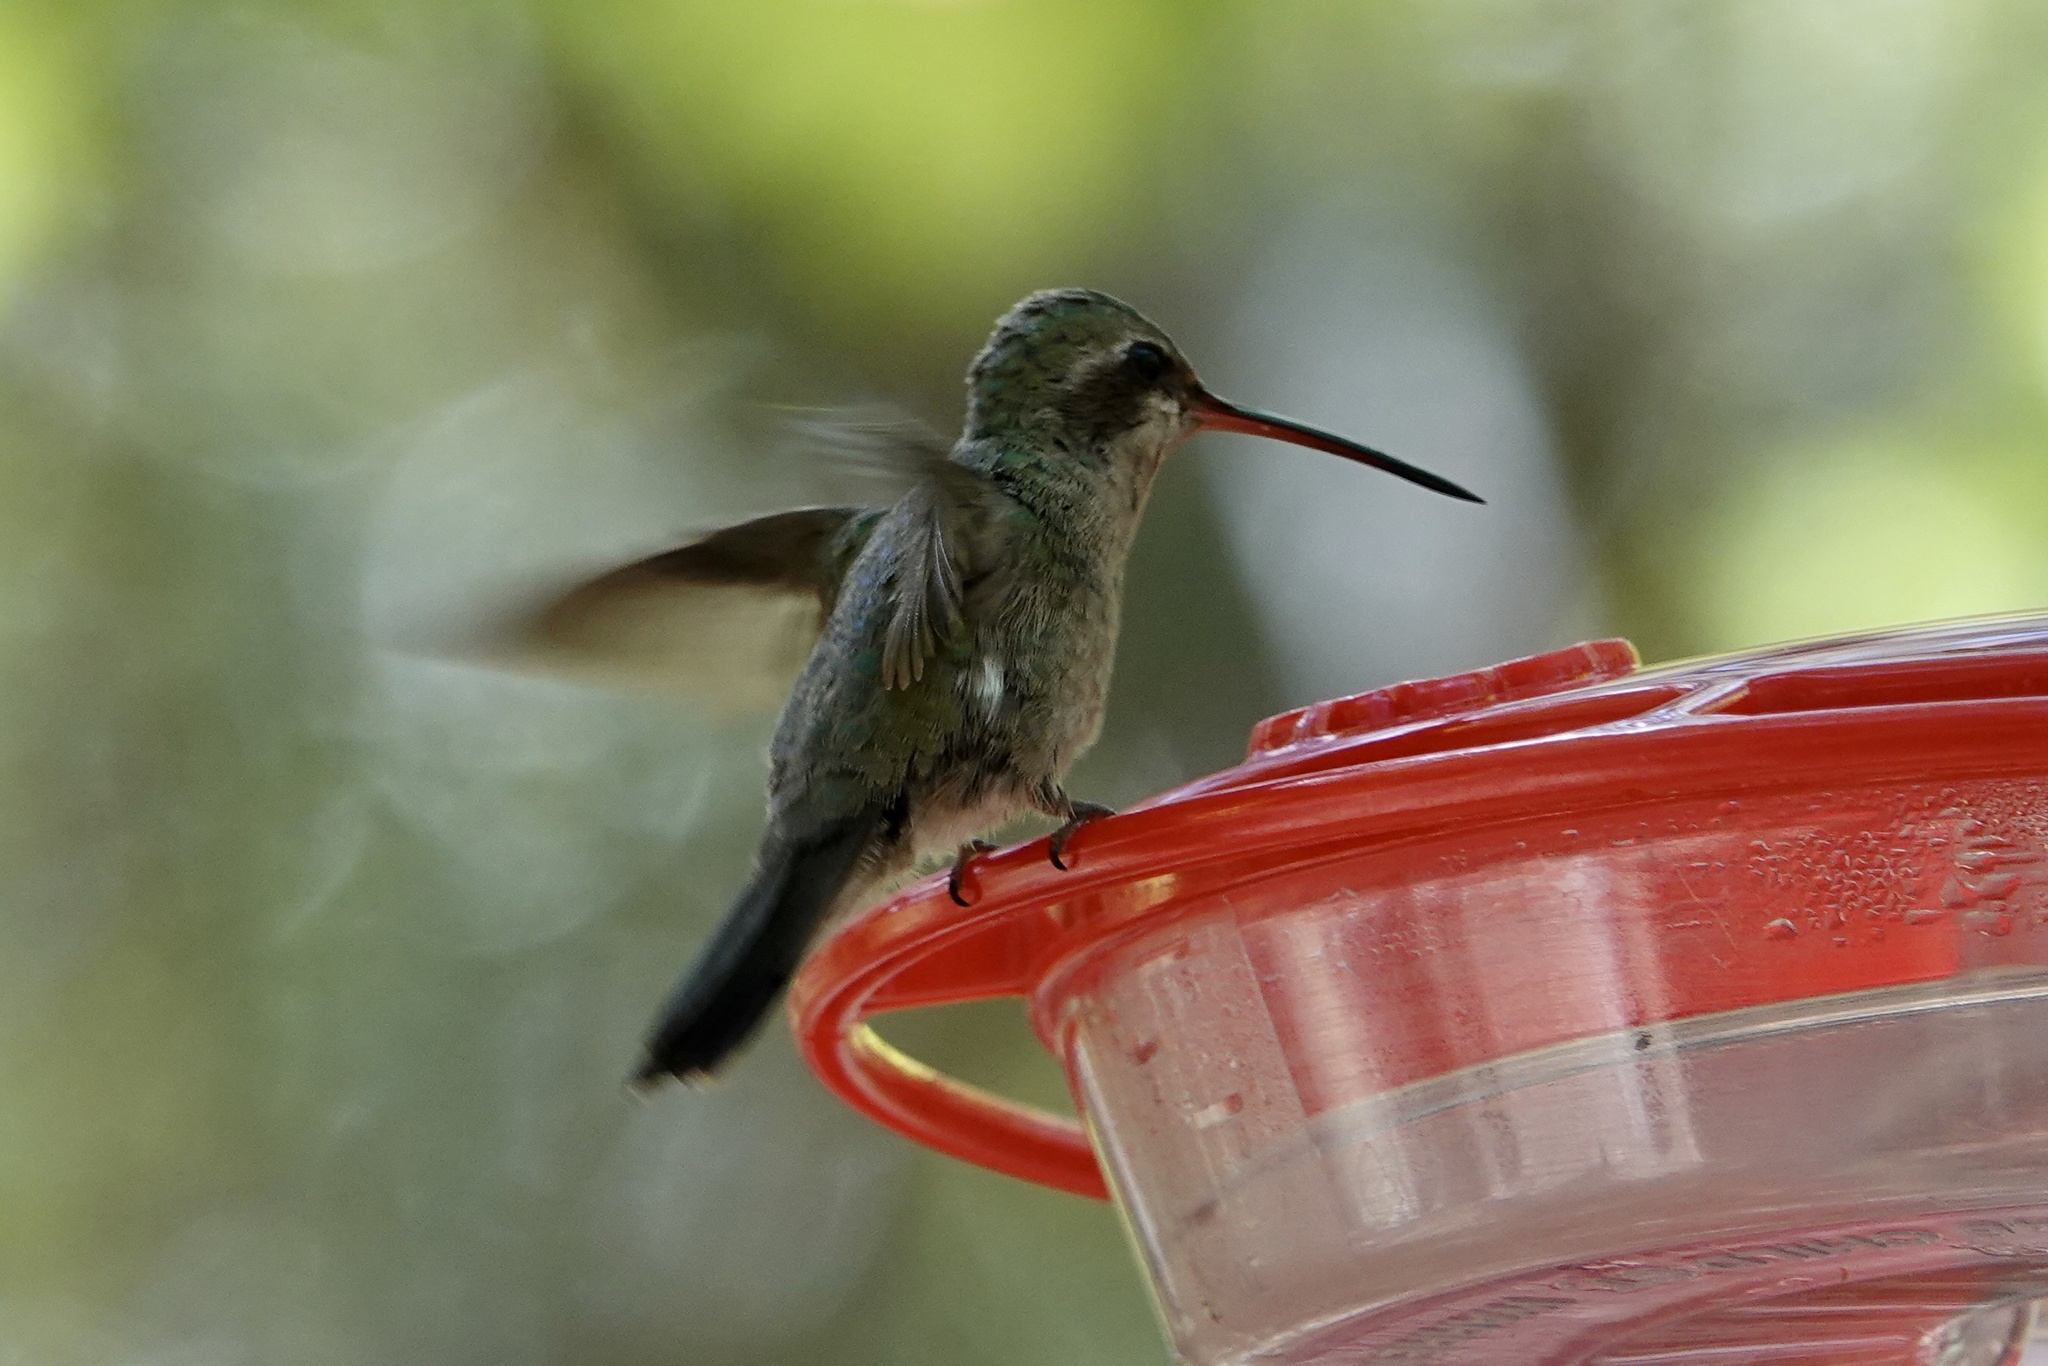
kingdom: Animalia
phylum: Chordata
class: Aves
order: Apodiformes
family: Trochilidae
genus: Cynanthus
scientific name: Cynanthus latirostris
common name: Broad-billed hummingbird
